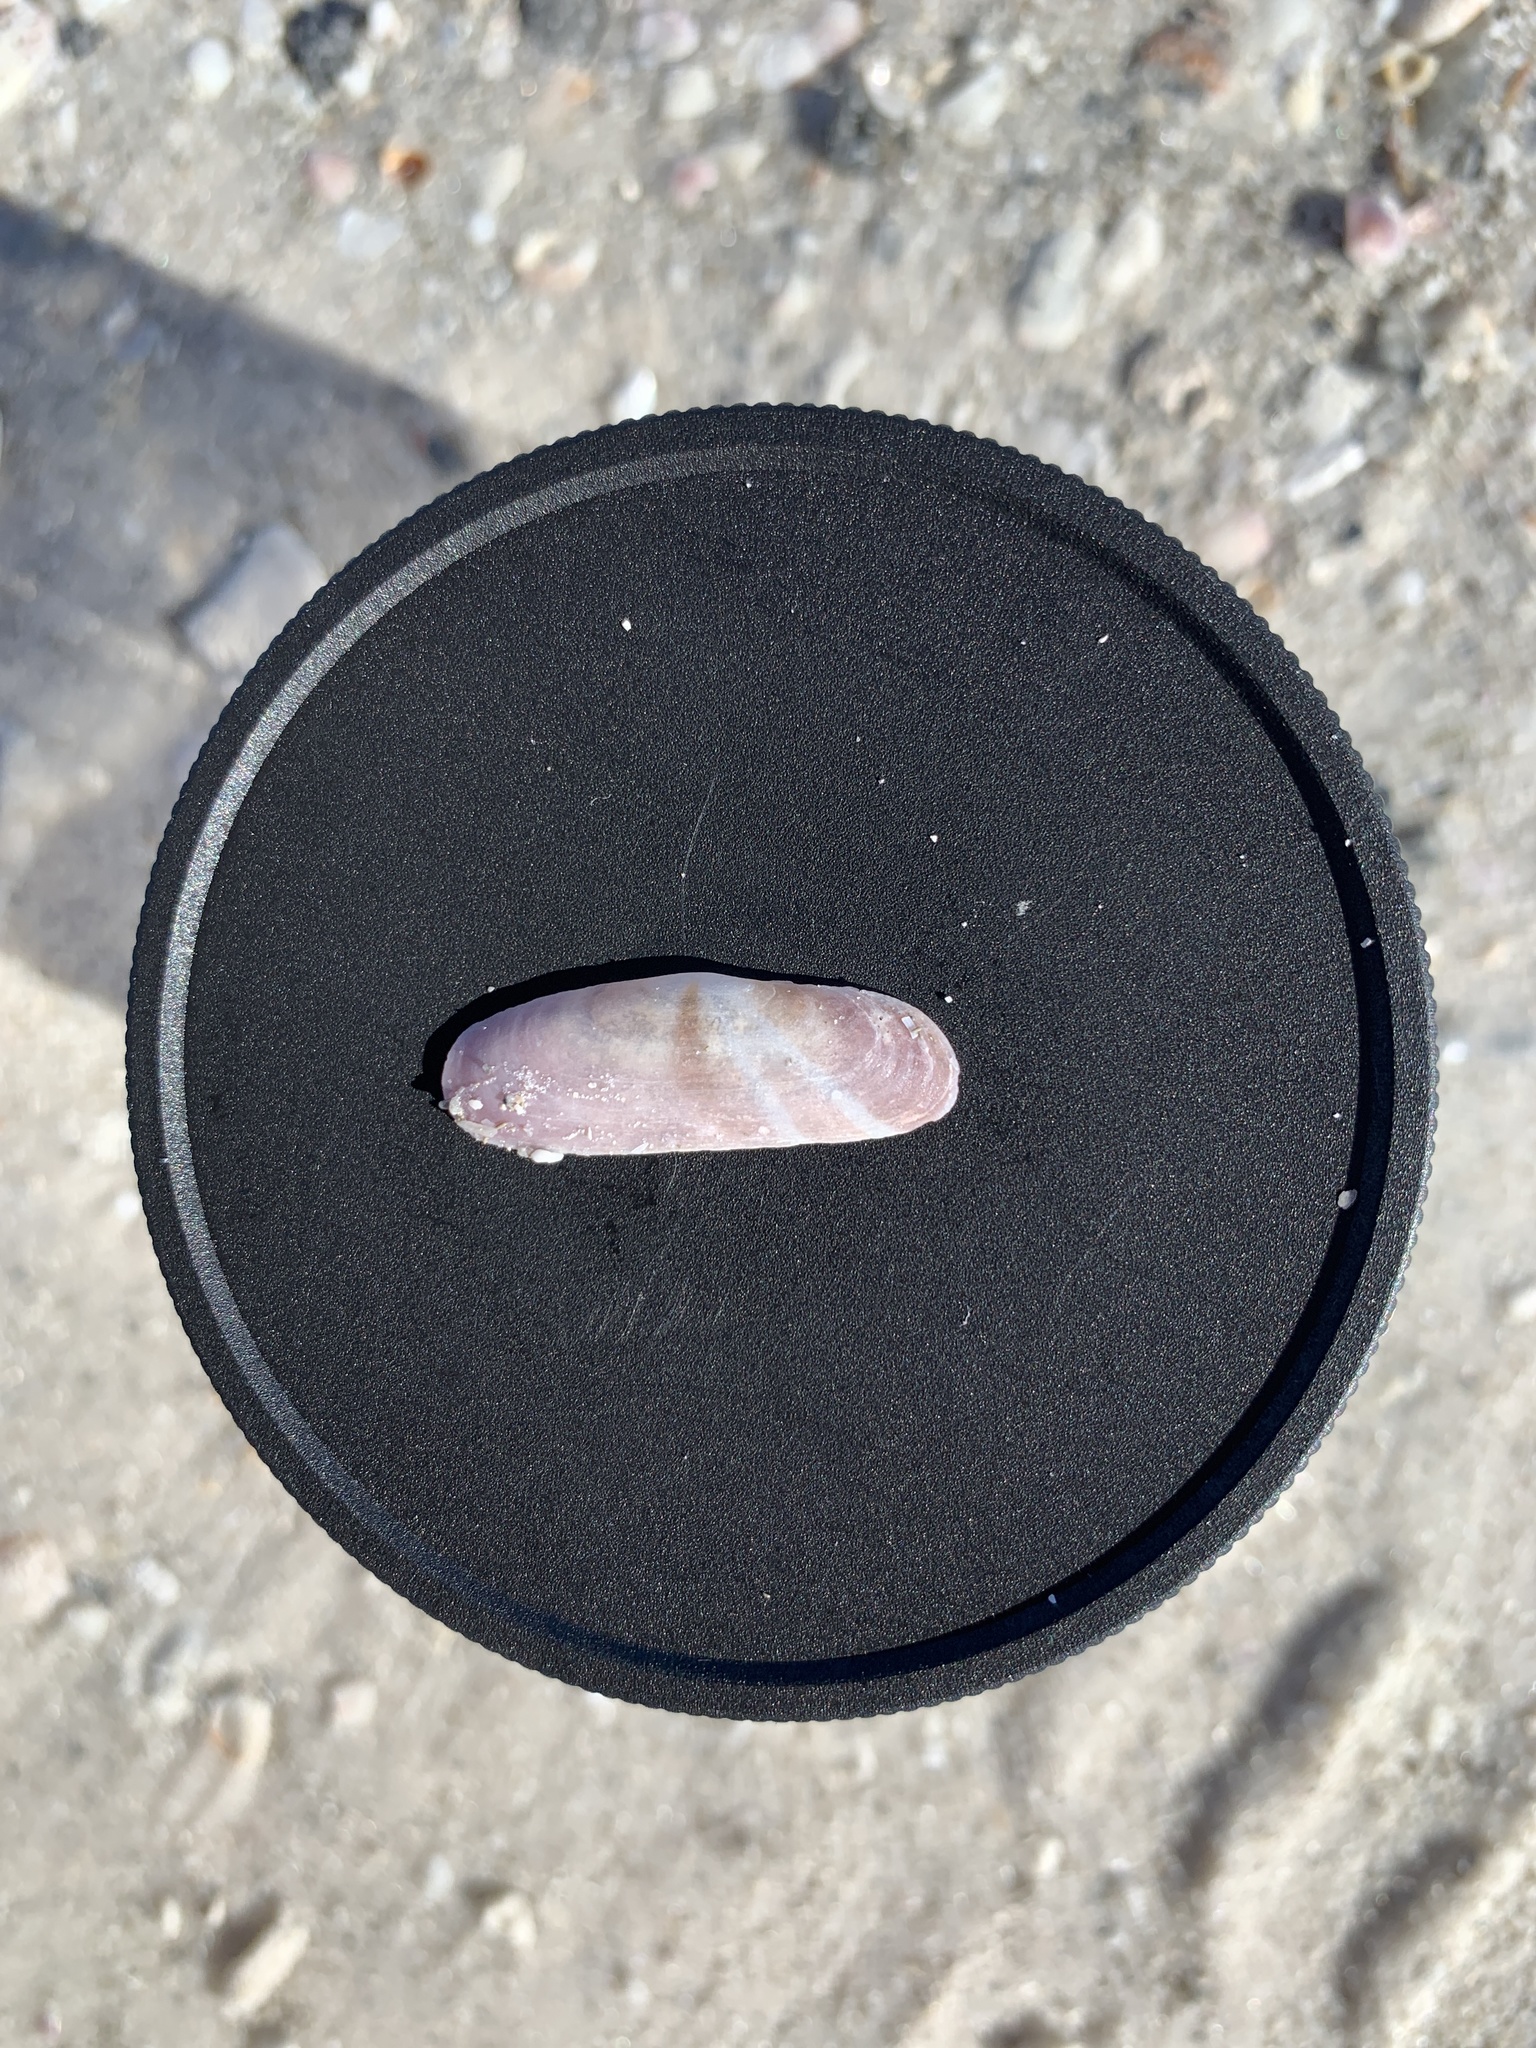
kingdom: Animalia
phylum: Mollusca
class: Bivalvia
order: Cardiida
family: Solecurtidae
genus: Tagelus
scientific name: Tagelus divisus
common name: Purplish tagelus
